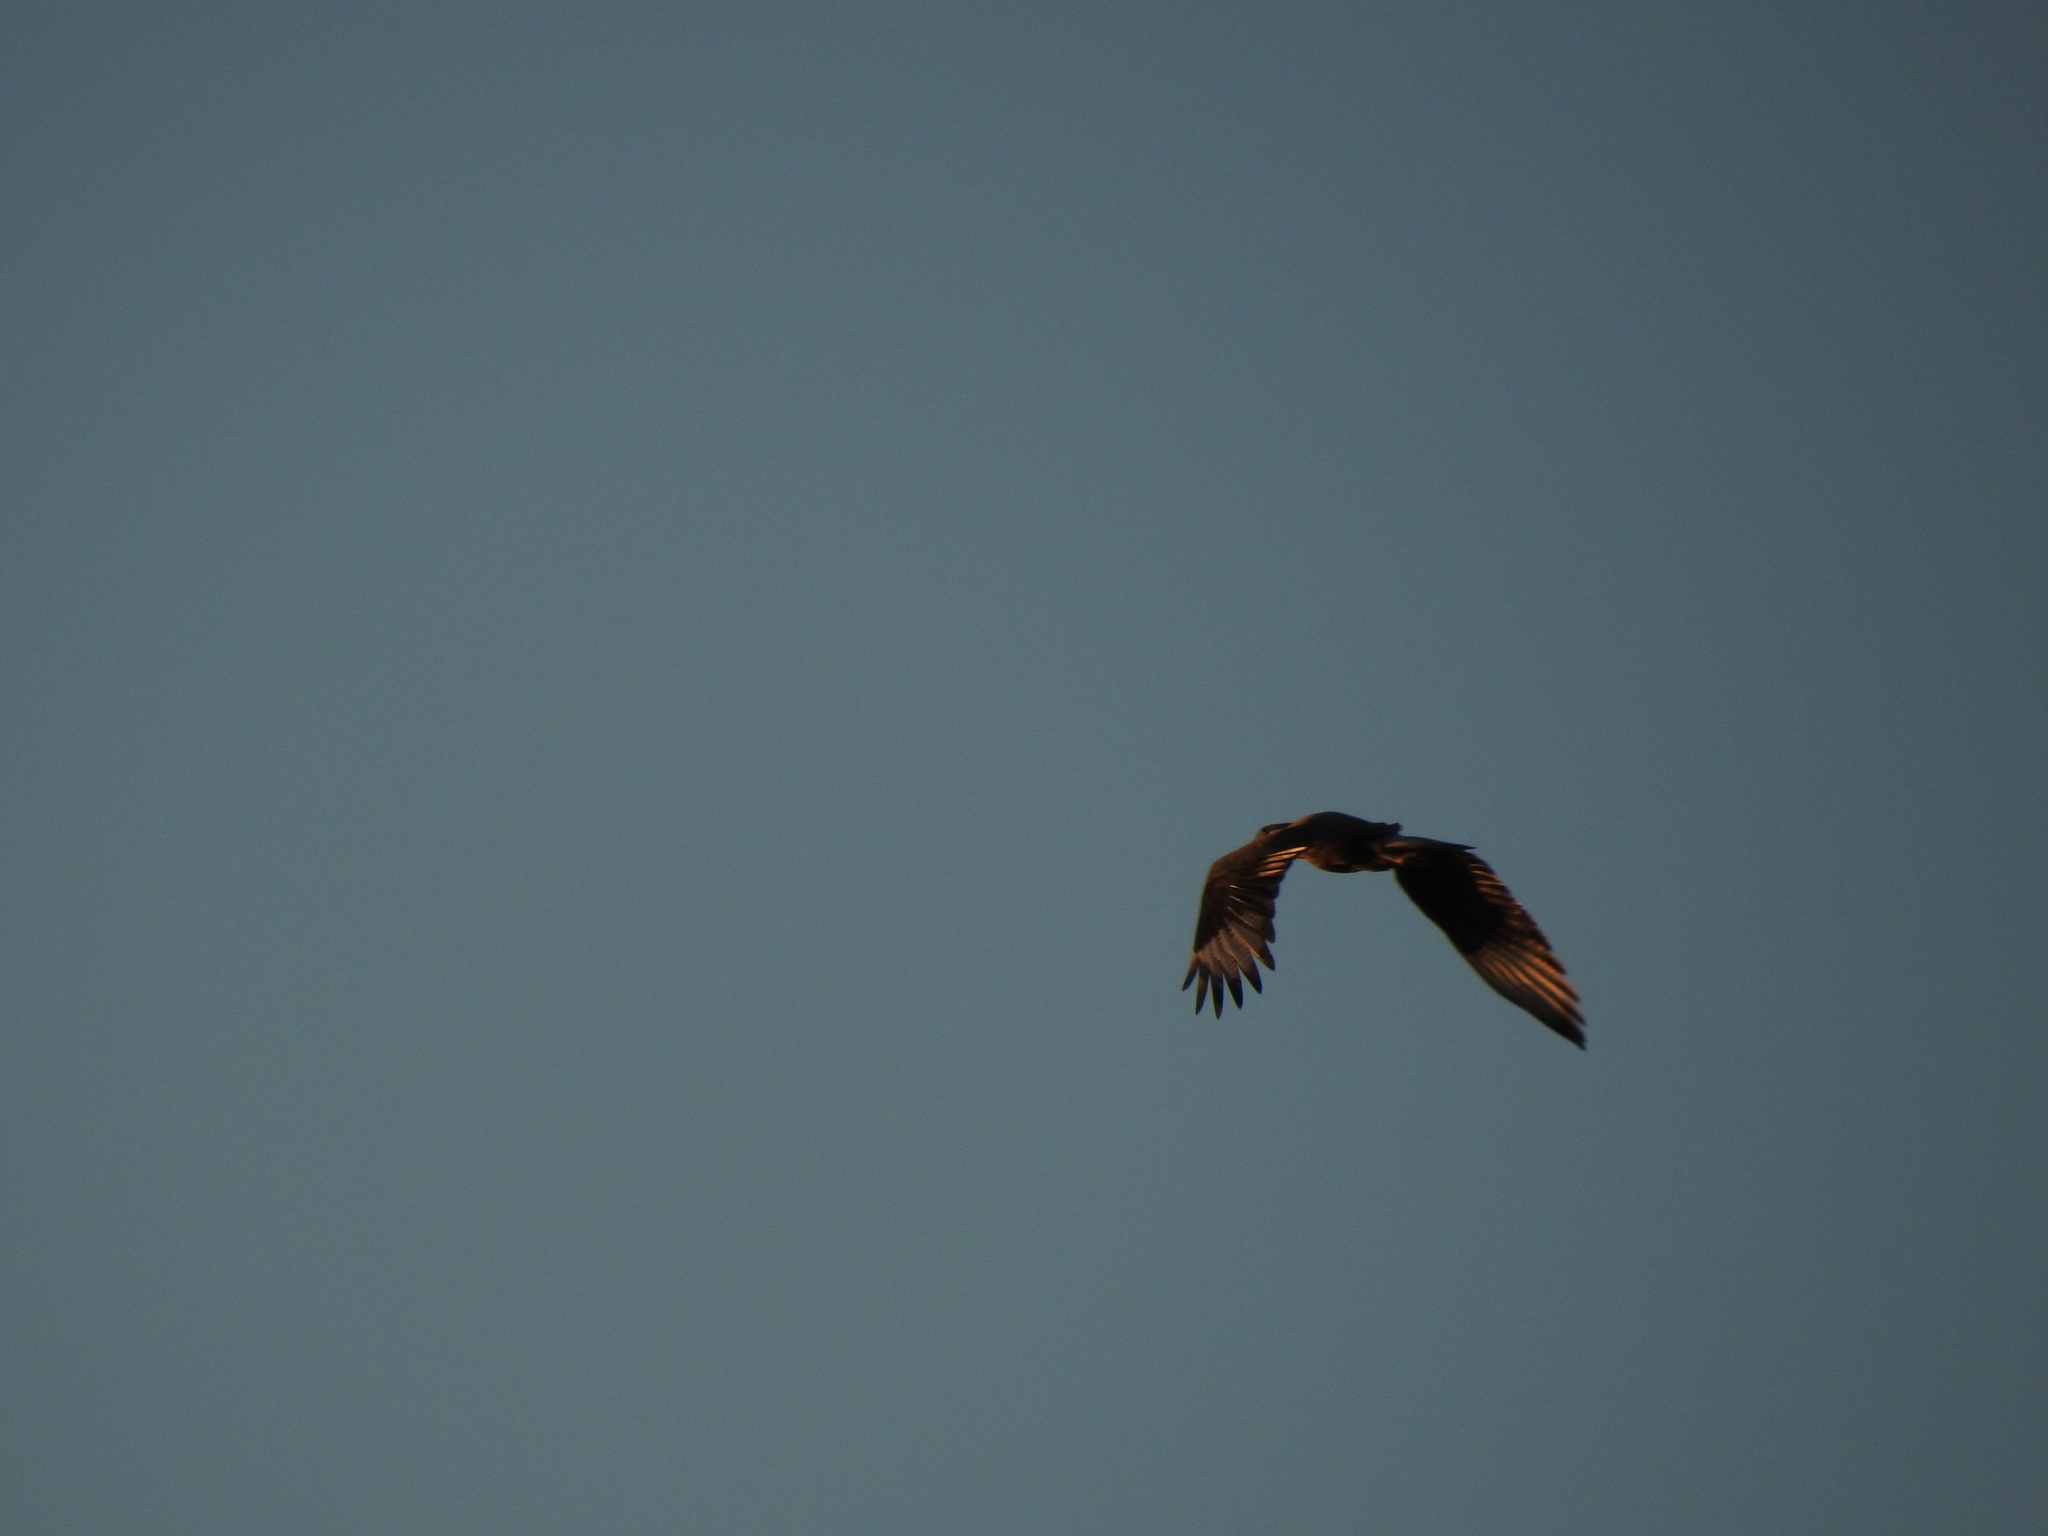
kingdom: Animalia
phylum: Chordata
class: Aves
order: Falconiformes
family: Falconidae
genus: Caracara
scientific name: Caracara plancus
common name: Southern caracara
